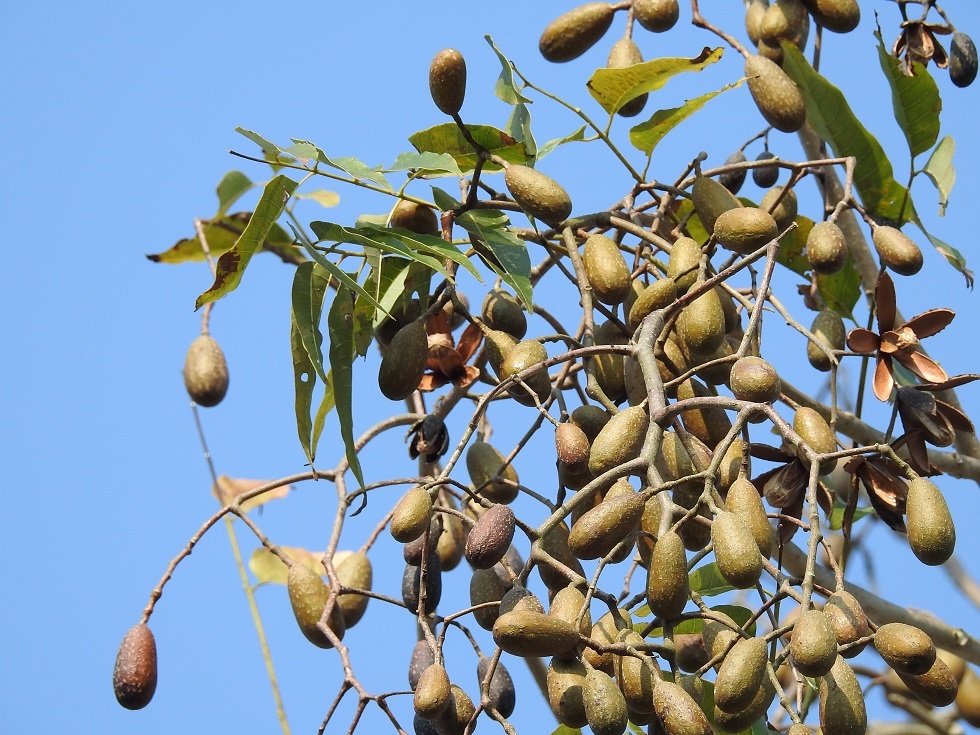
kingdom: Plantae
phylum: Tracheophyta
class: Magnoliopsida
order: Sapindales
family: Meliaceae
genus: Cedrela
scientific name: Cedrela odorata
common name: Red cedar
